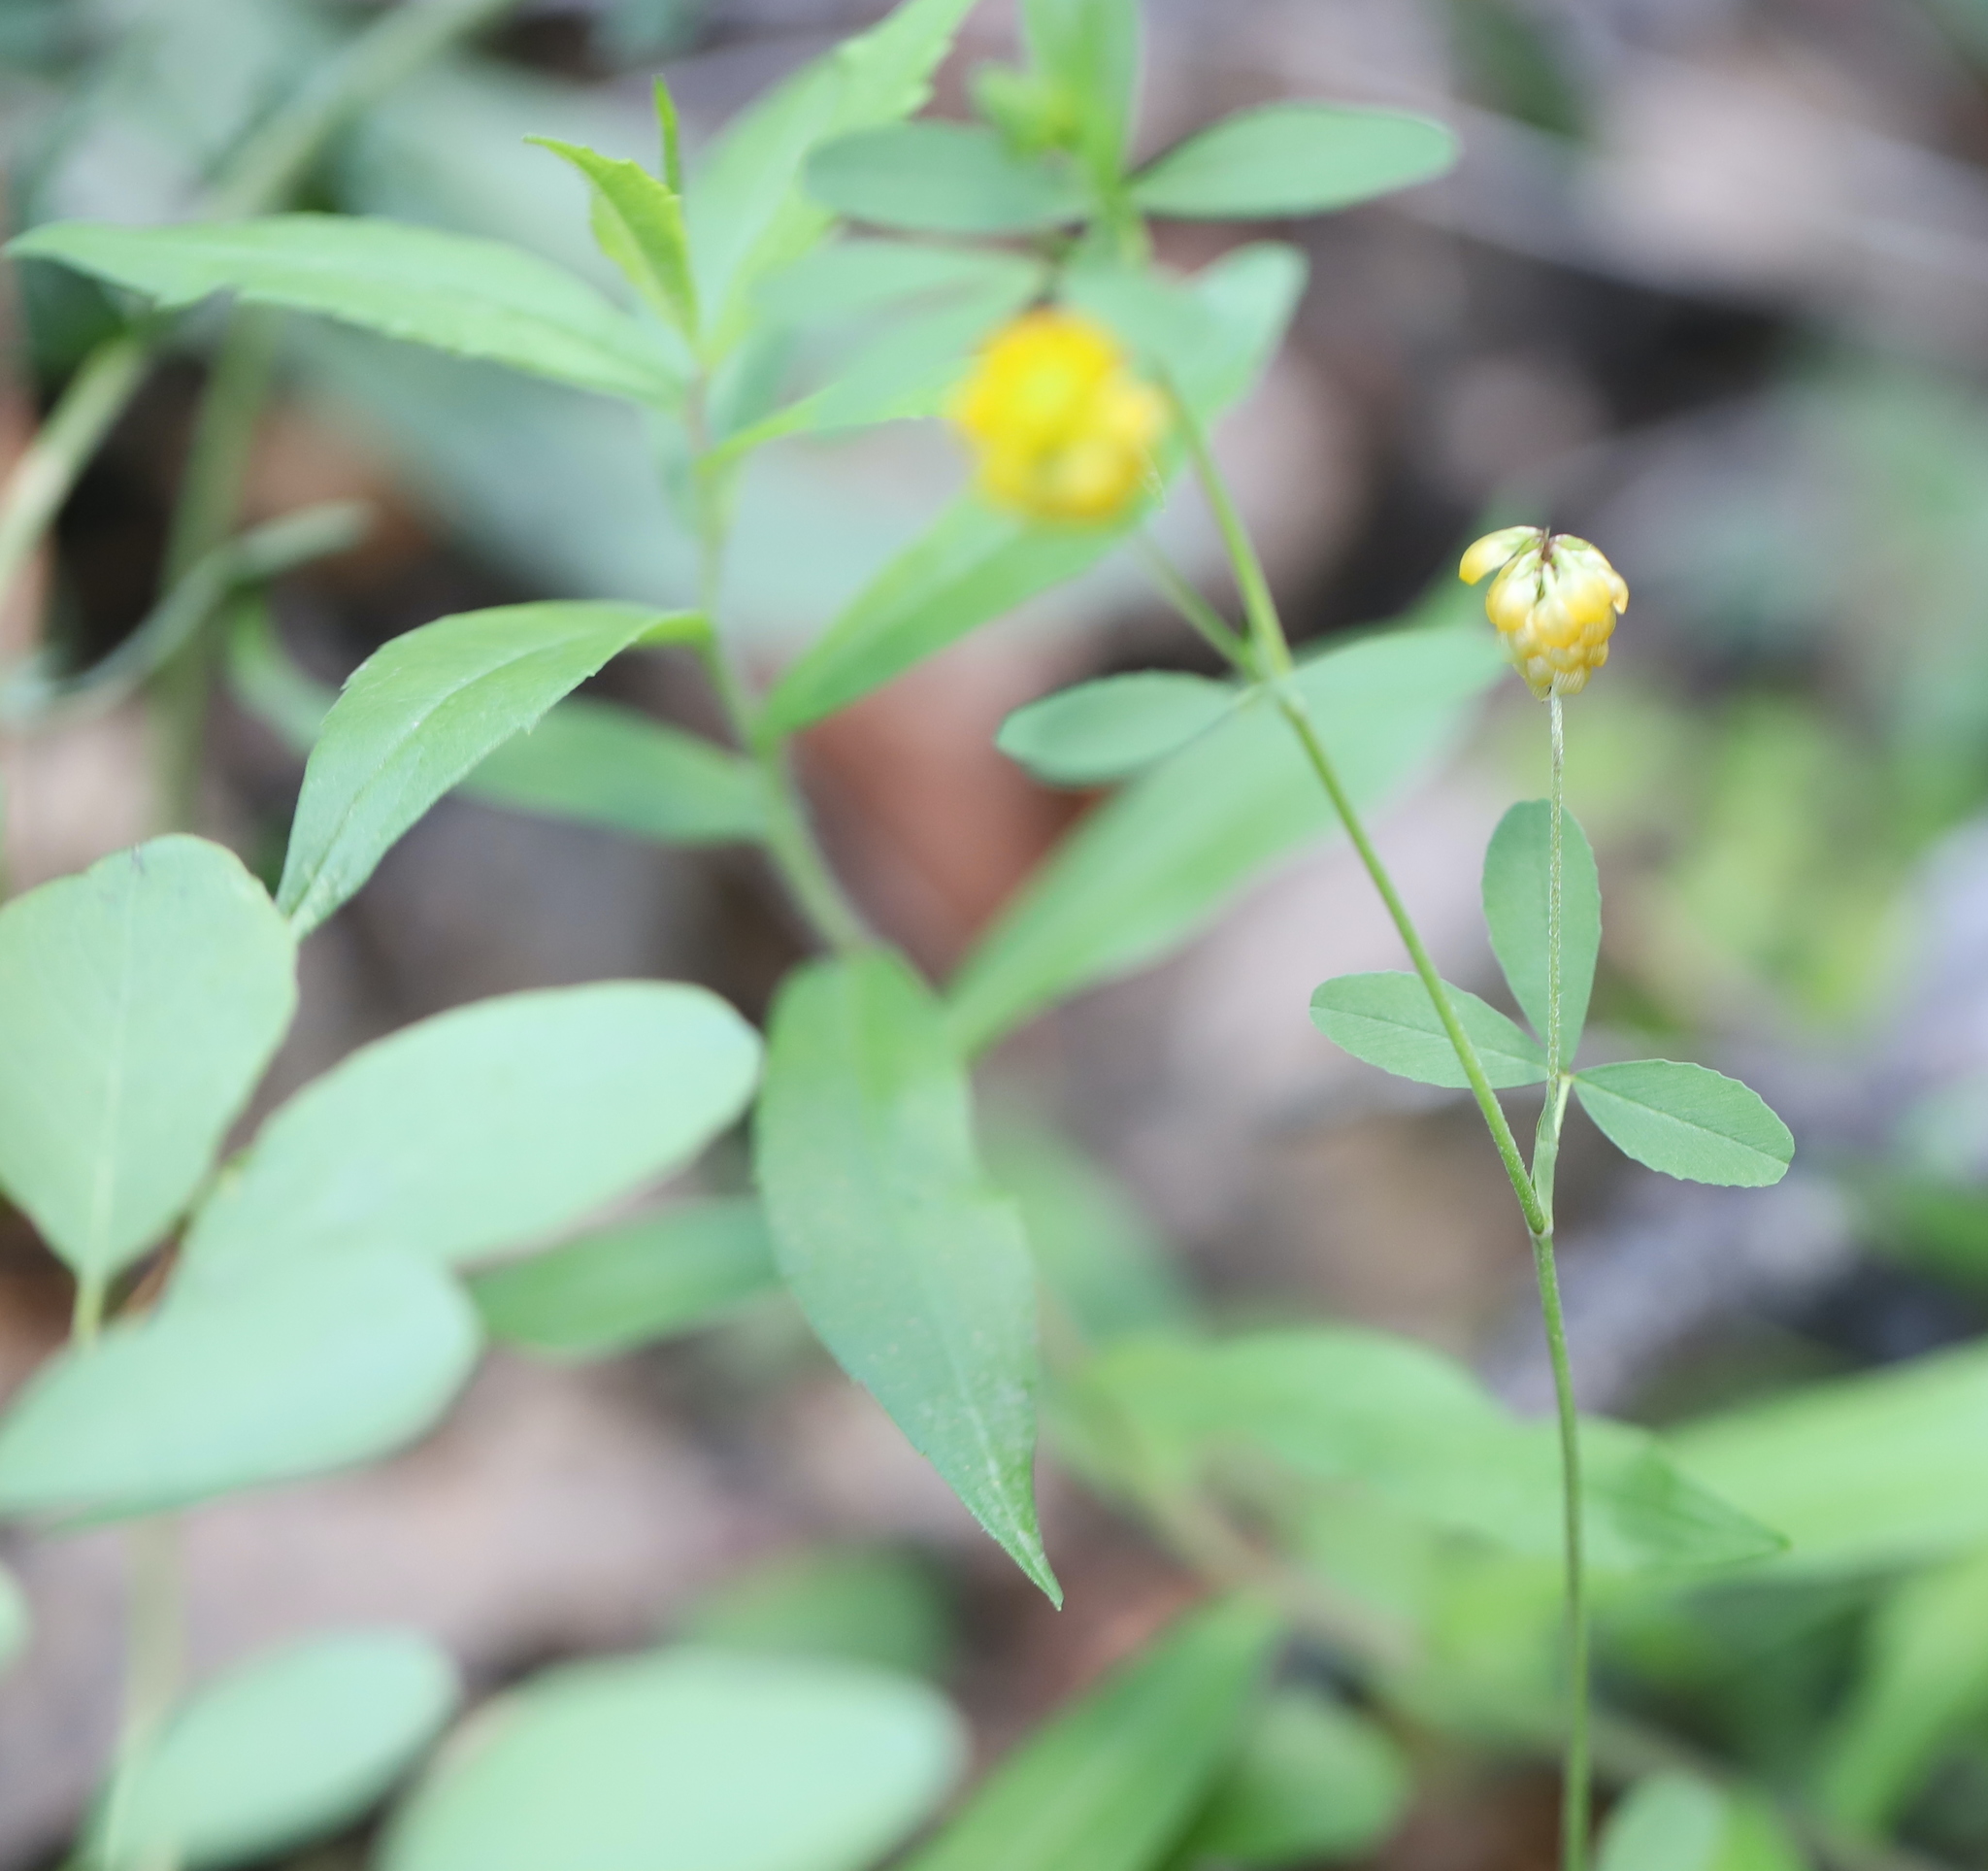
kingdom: Plantae
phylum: Tracheophyta
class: Magnoliopsida
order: Fabales
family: Fabaceae
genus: Trifolium
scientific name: Trifolium aureum
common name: Golden clover
